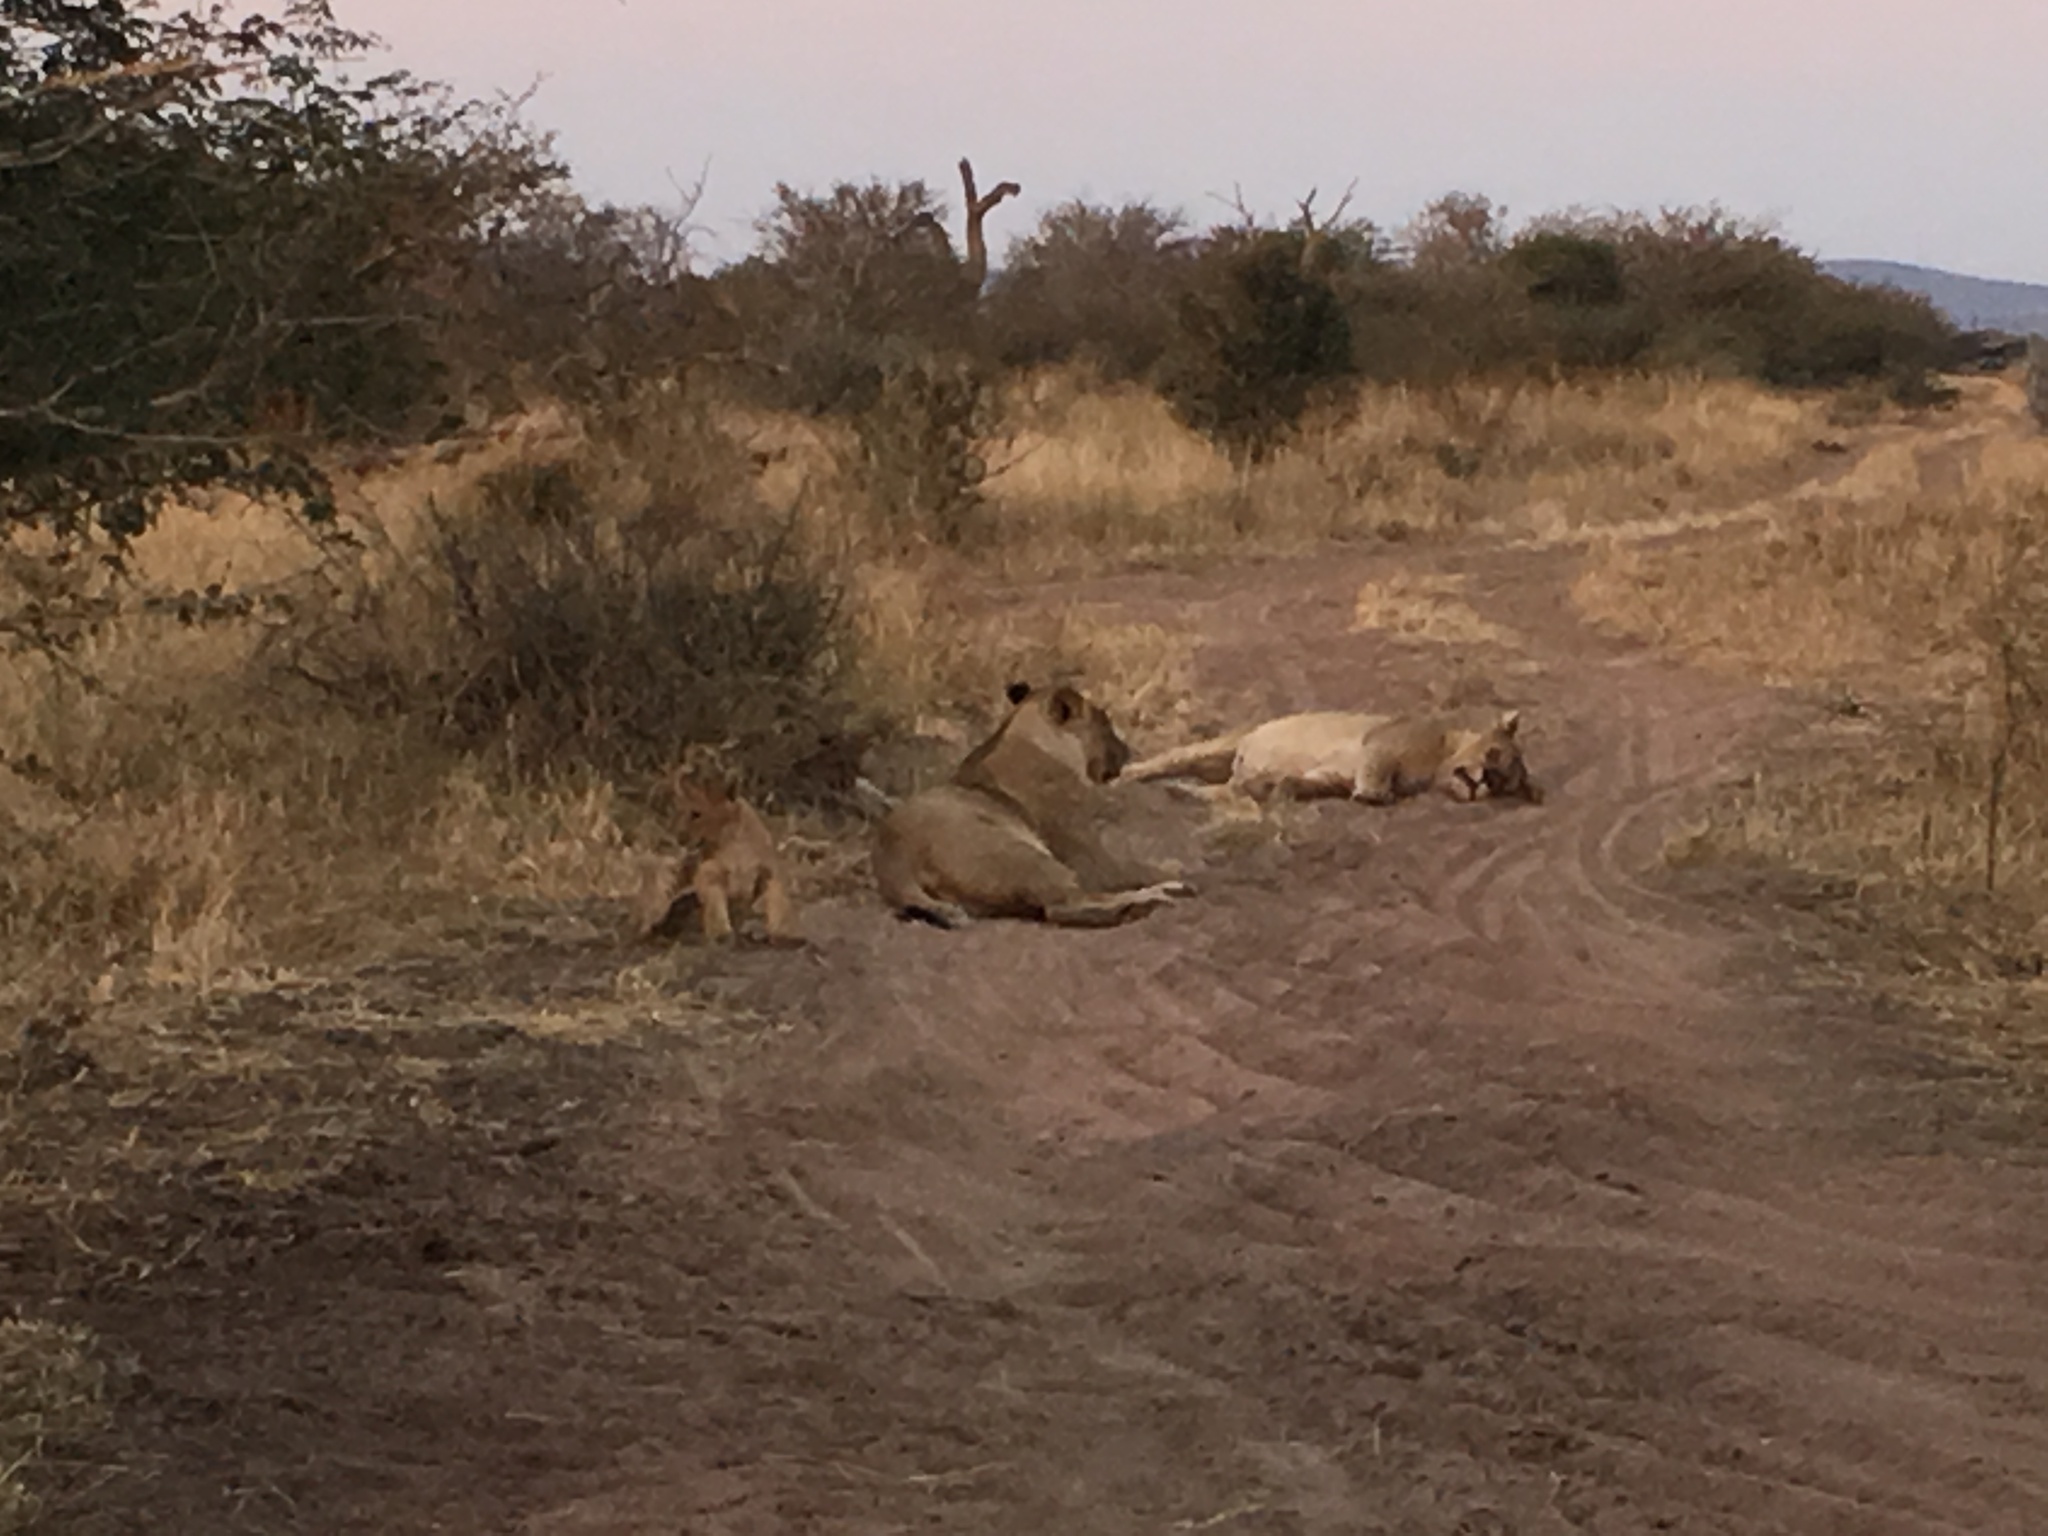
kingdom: Animalia
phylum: Chordata
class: Mammalia
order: Carnivora
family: Felidae
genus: Panthera
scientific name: Panthera leo
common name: Lion
